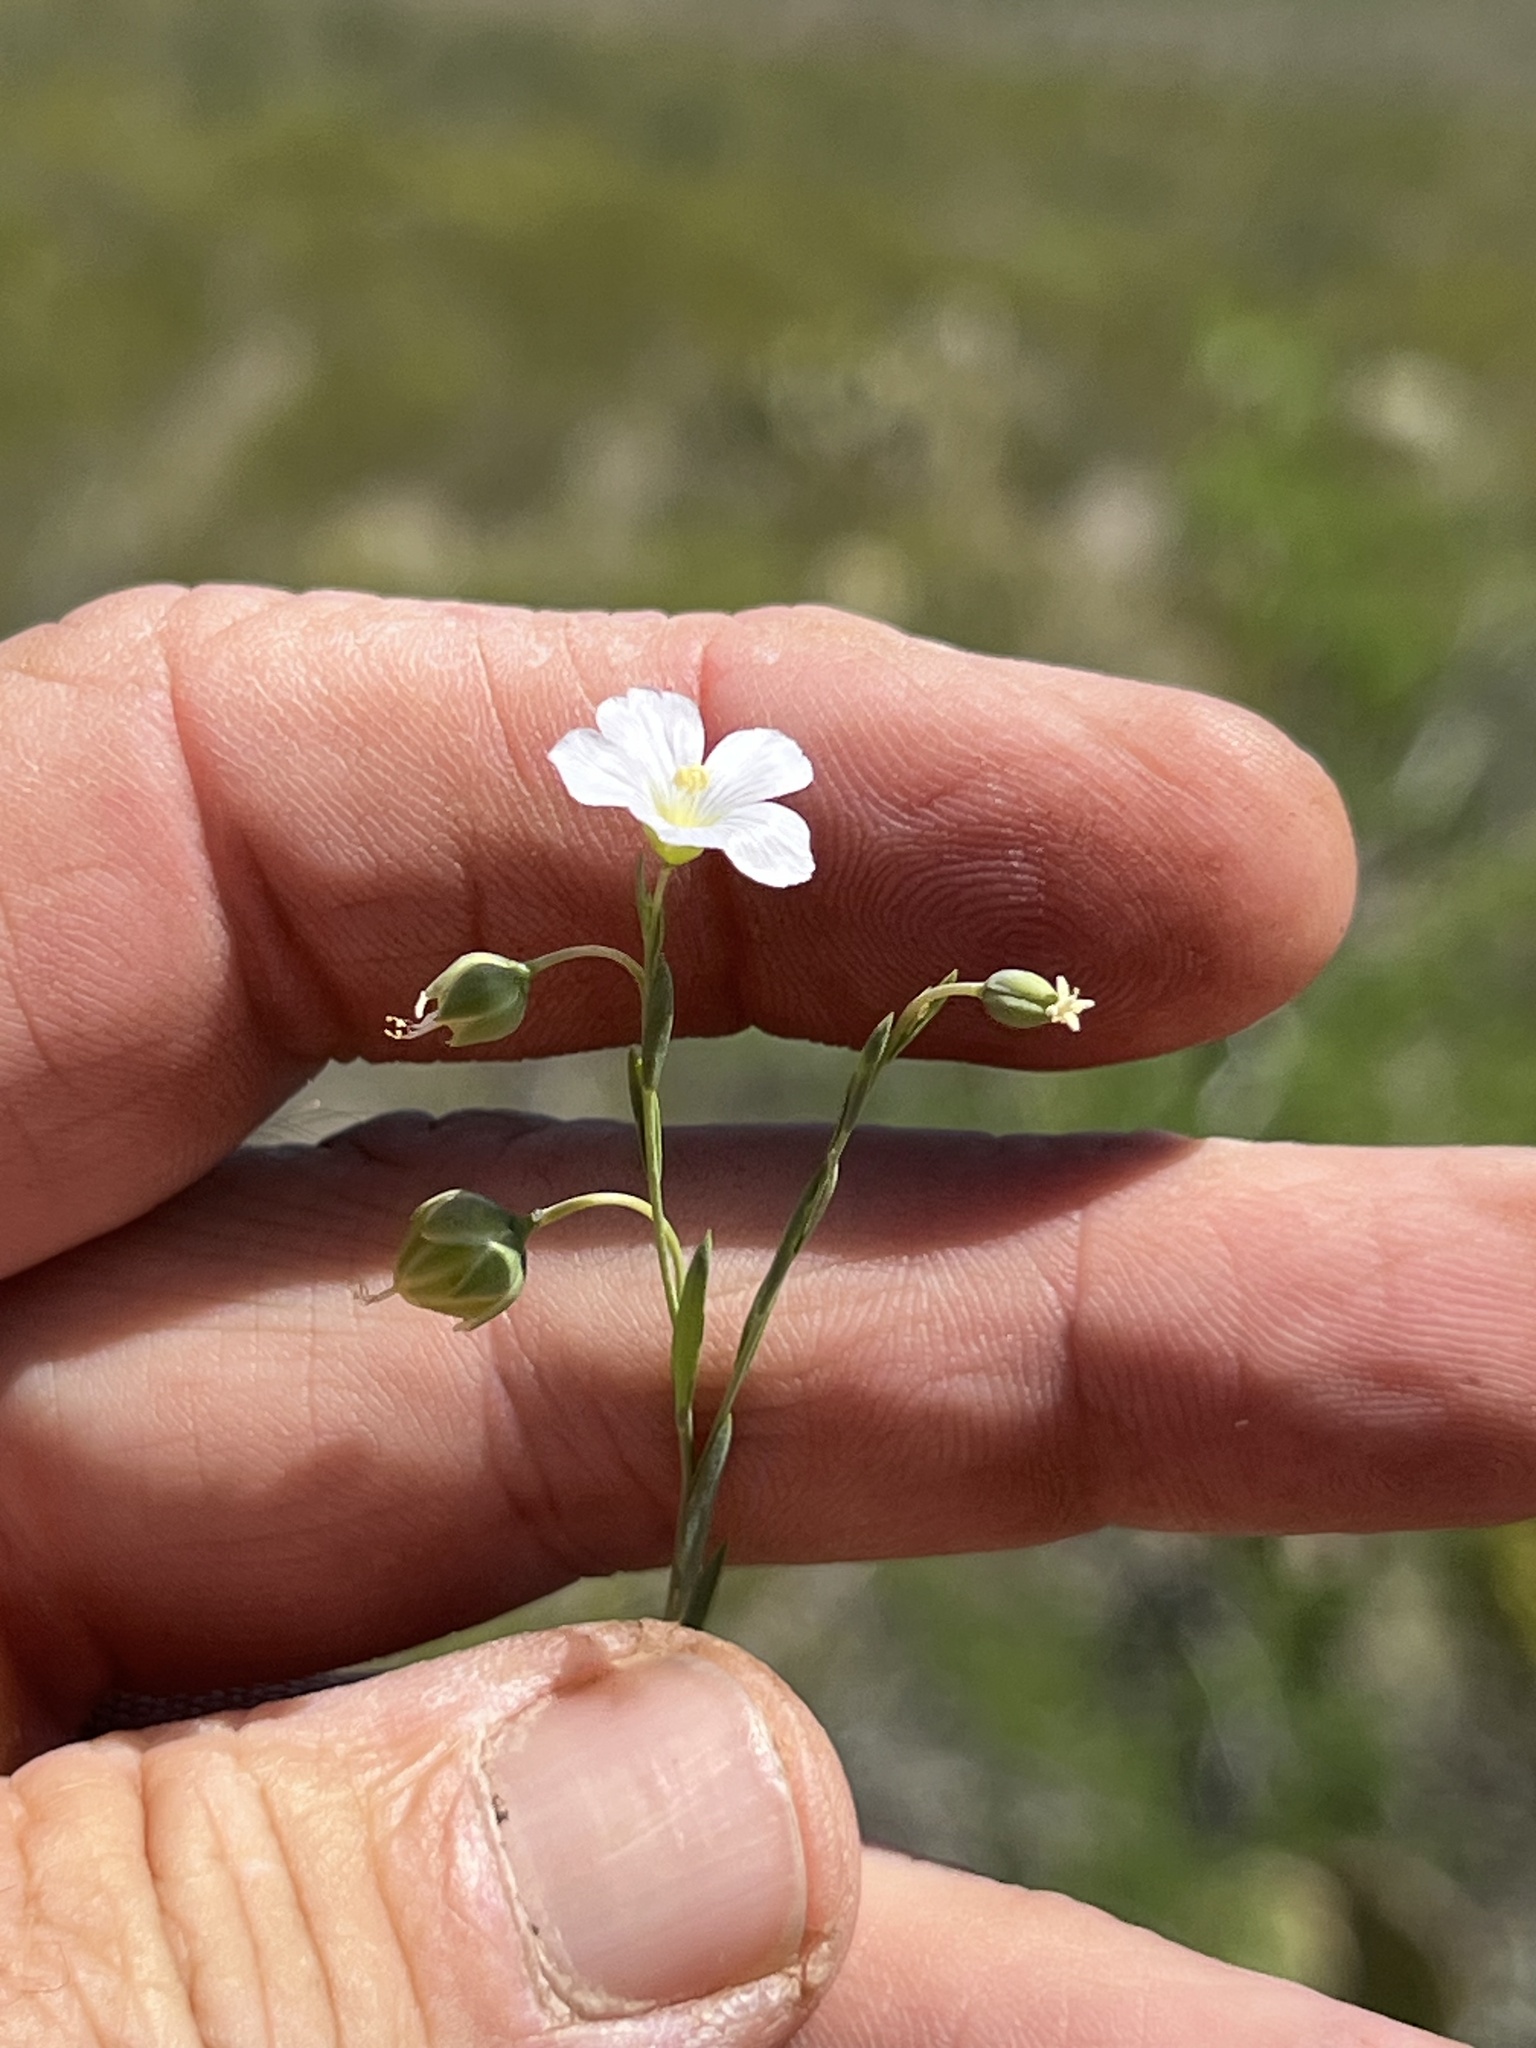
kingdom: Plantae
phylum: Tracheophyta
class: Magnoliopsida
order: Brassicales
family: Brassicaceae
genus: Physaria
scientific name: Physaria purpurea
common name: Rose bladderpod
